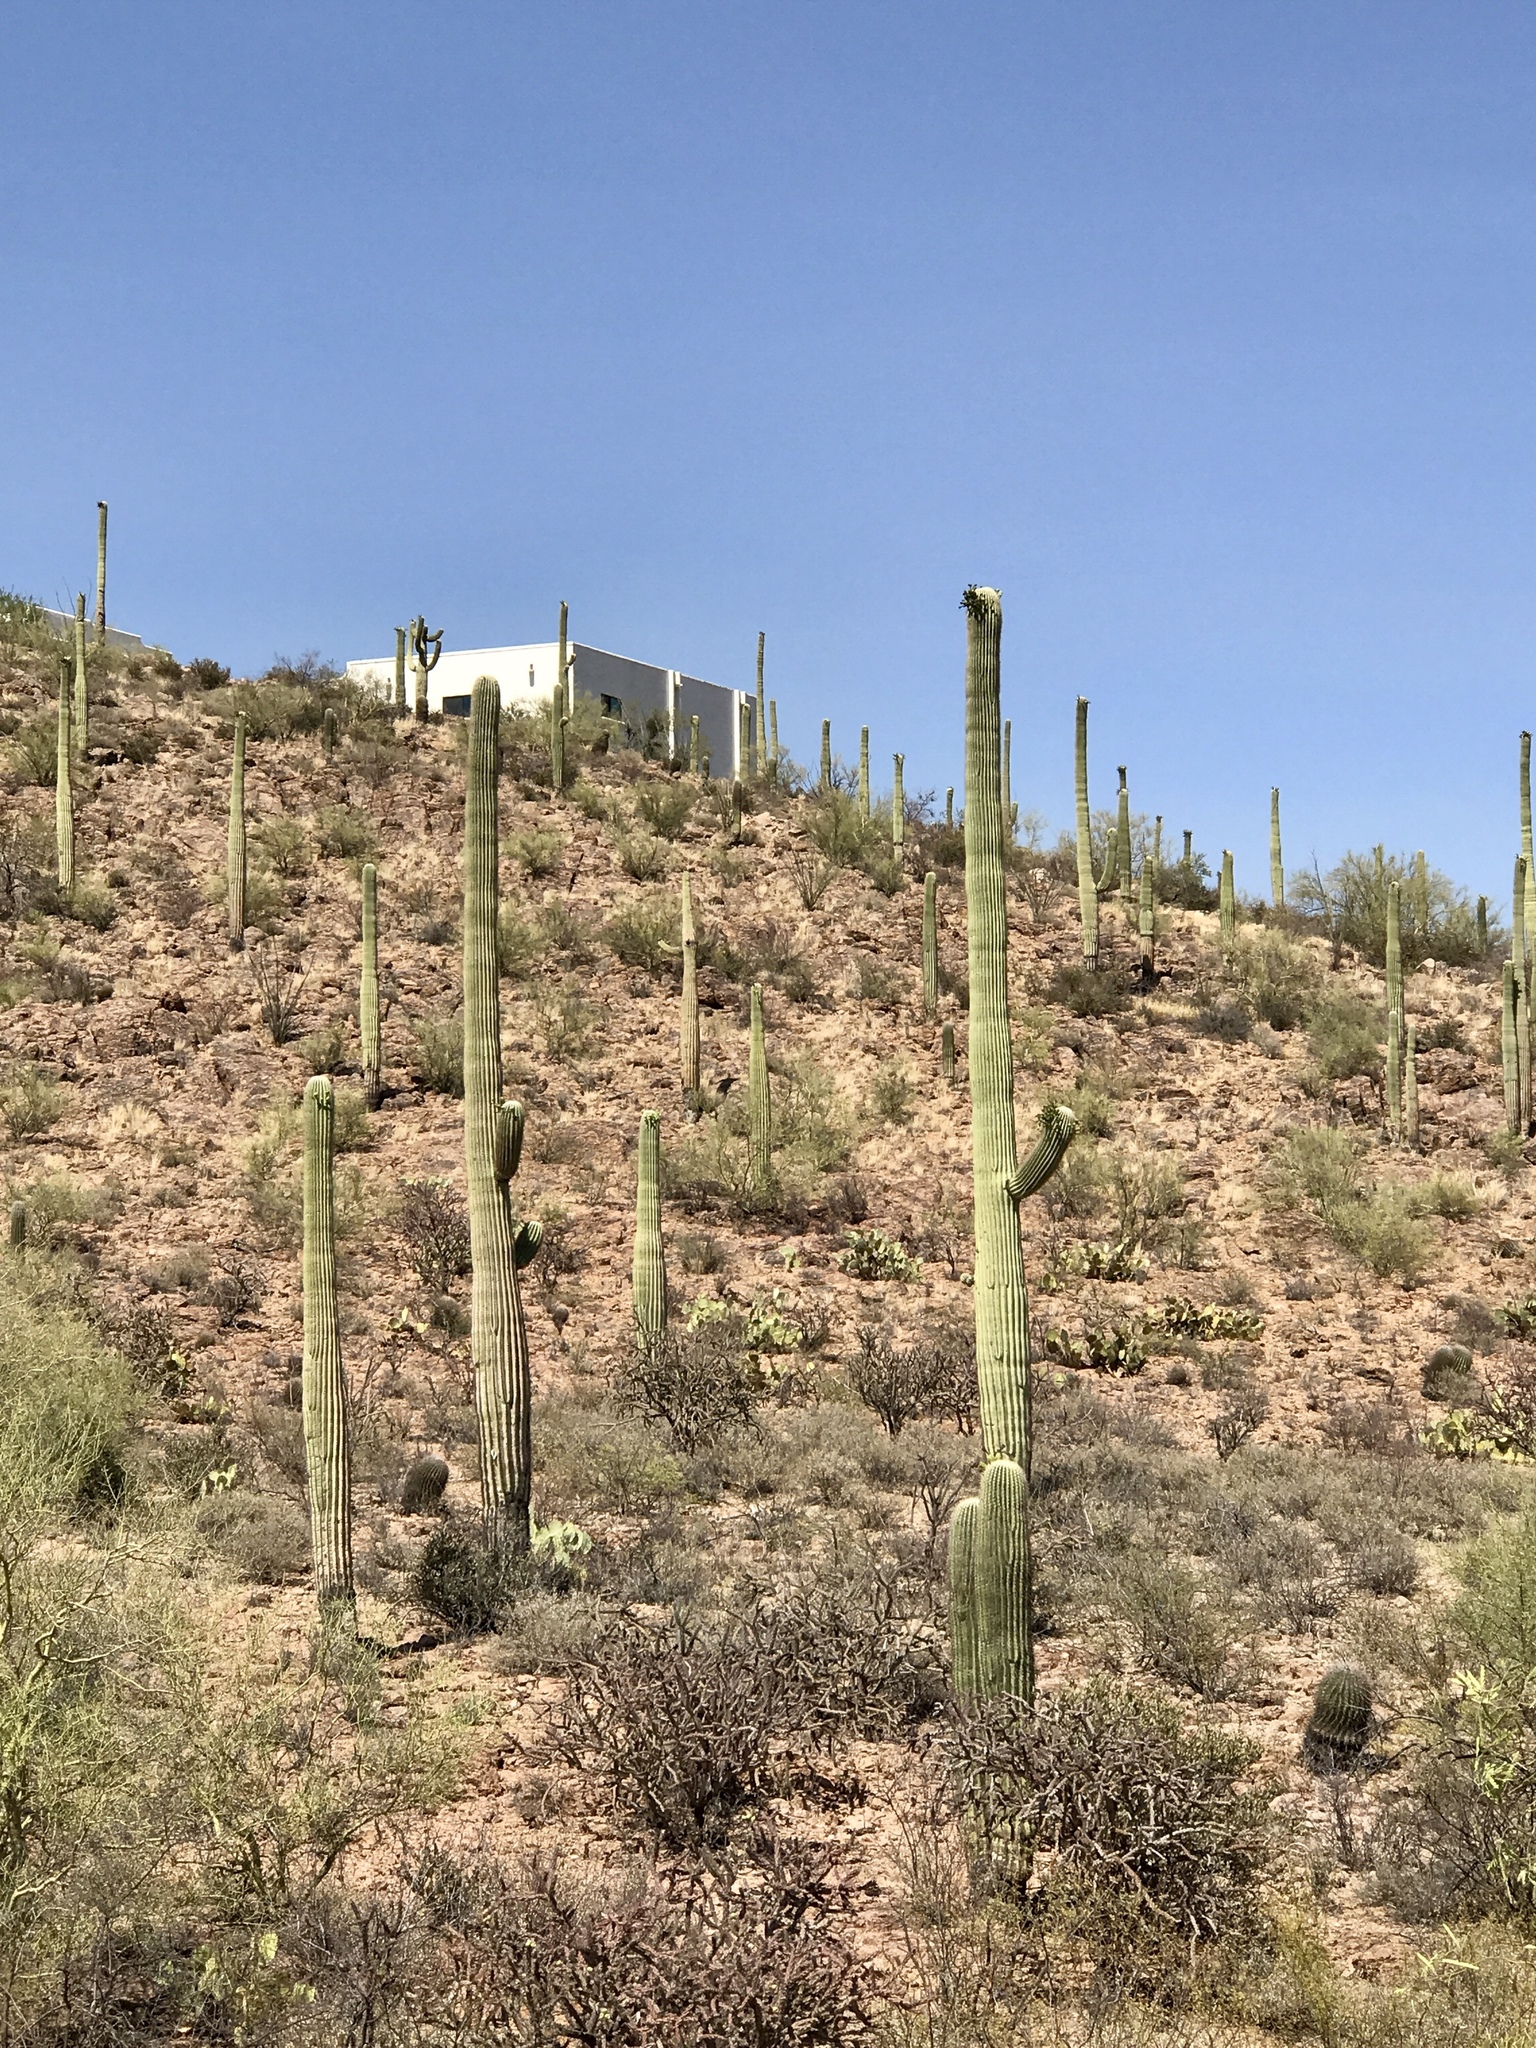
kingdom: Plantae
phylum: Tracheophyta
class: Magnoliopsida
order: Caryophyllales
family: Cactaceae
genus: Carnegiea
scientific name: Carnegiea gigantea
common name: Saguaro
